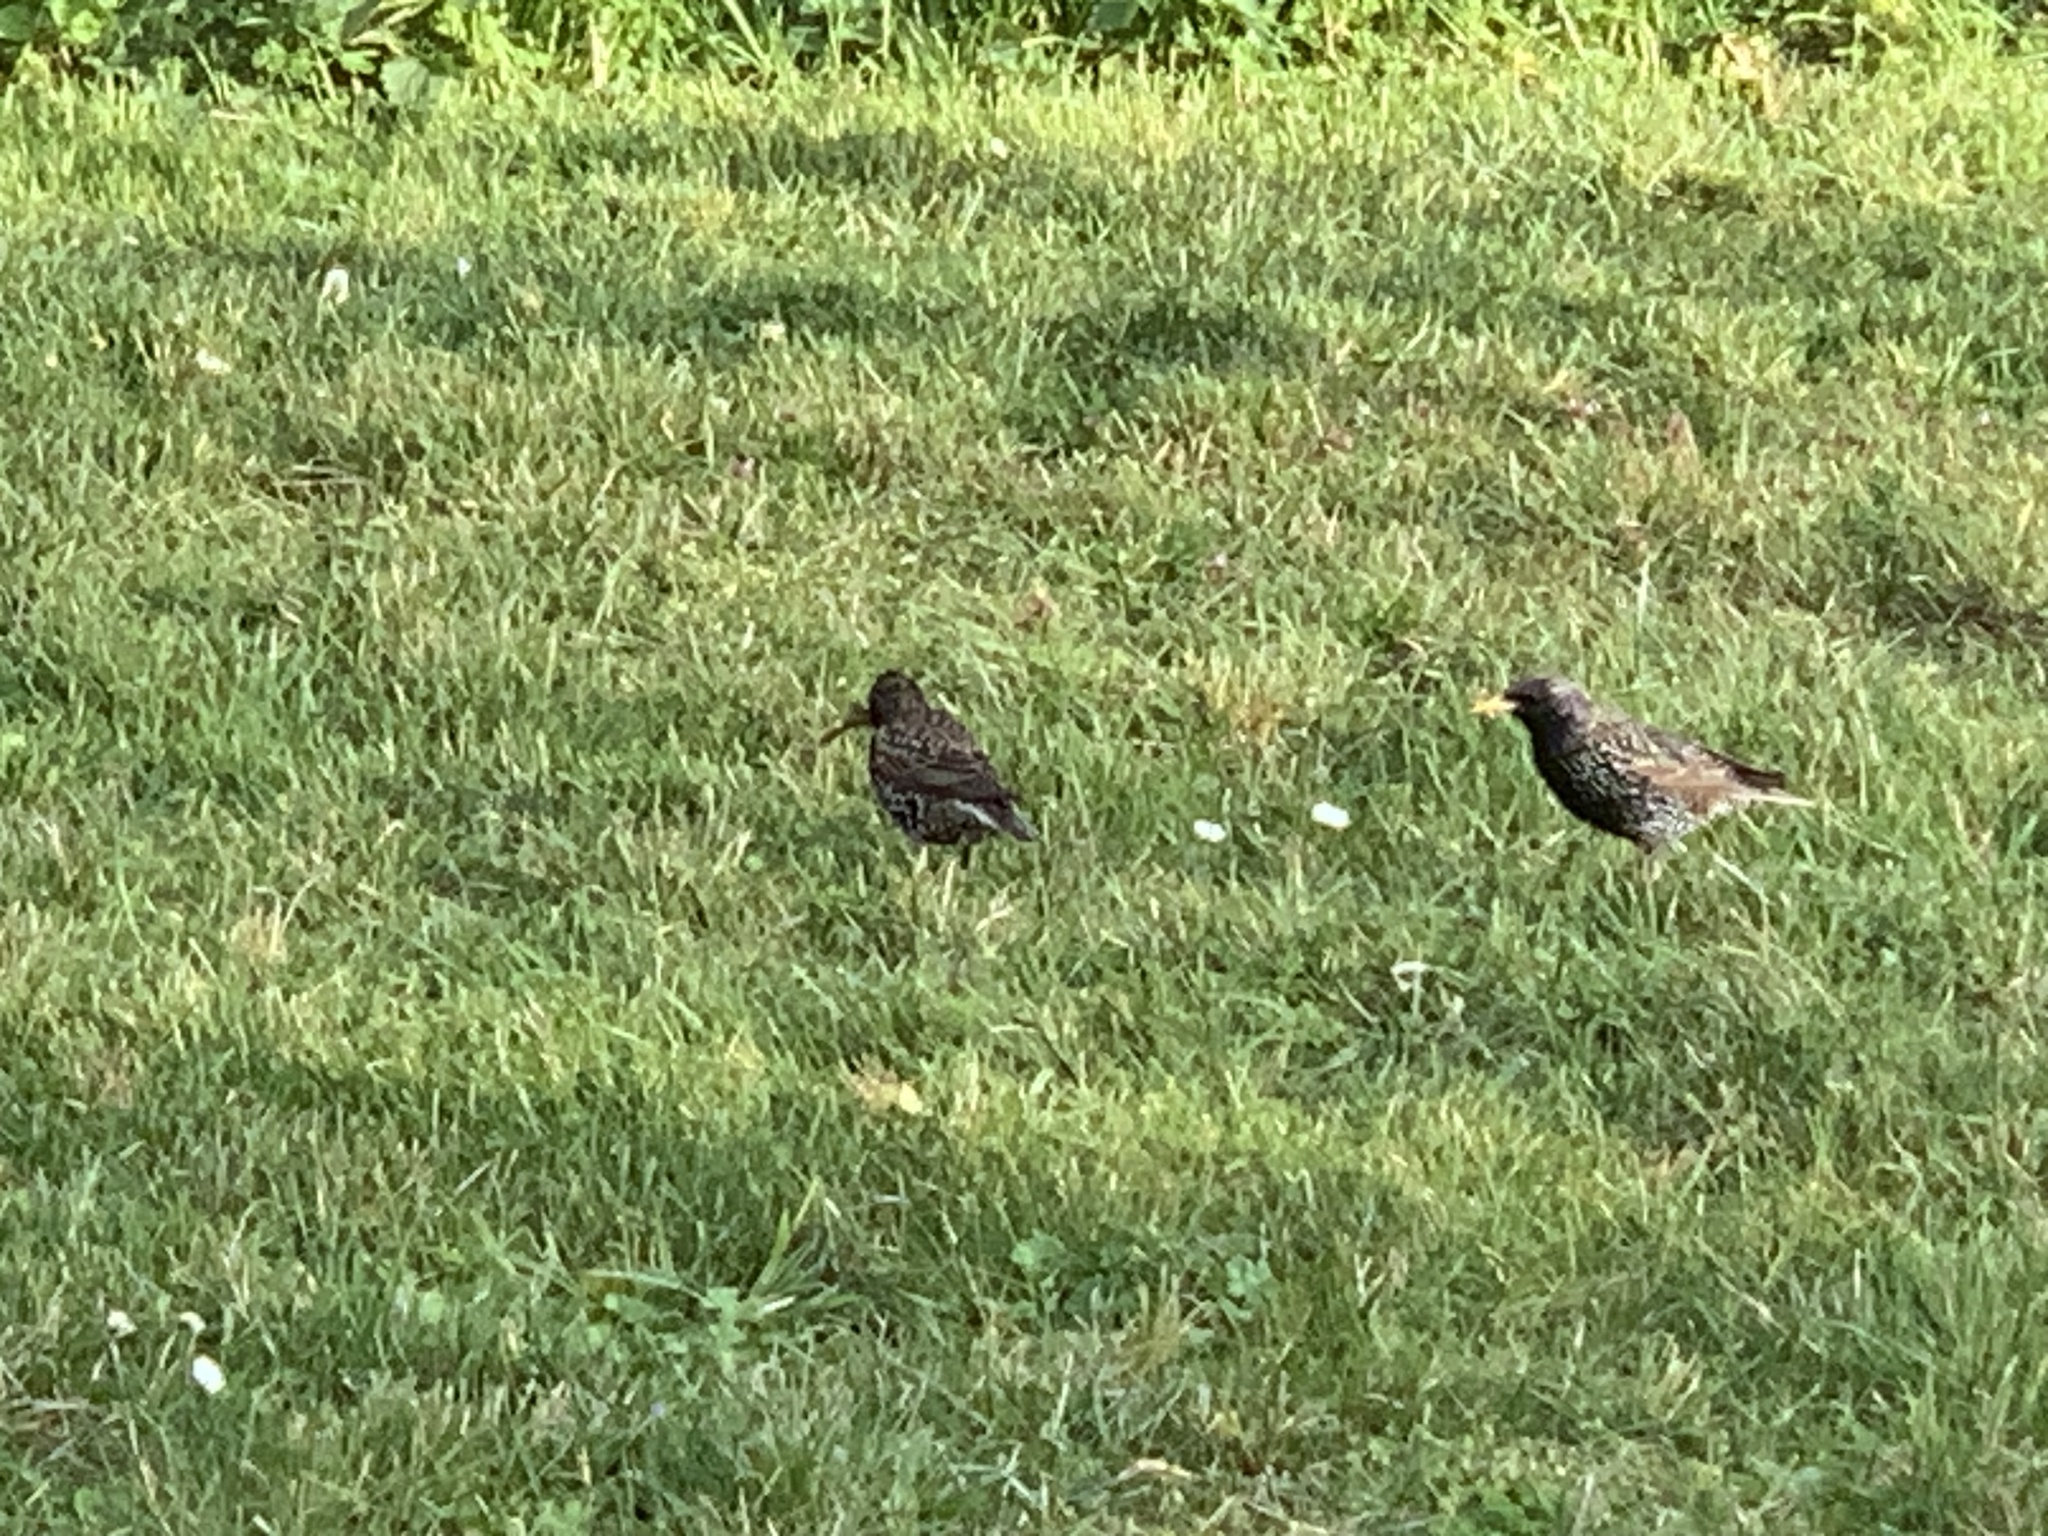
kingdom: Animalia
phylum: Chordata
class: Aves
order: Passeriformes
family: Sturnidae
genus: Sturnus
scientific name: Sturnus vulgaris
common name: Common starling
